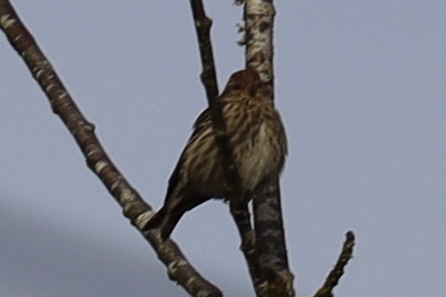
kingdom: Animalia
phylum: Chordata
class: Aves
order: Passeriformes
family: Fringillidae
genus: Spinus
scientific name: Spinus pinus
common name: Pine siskin
